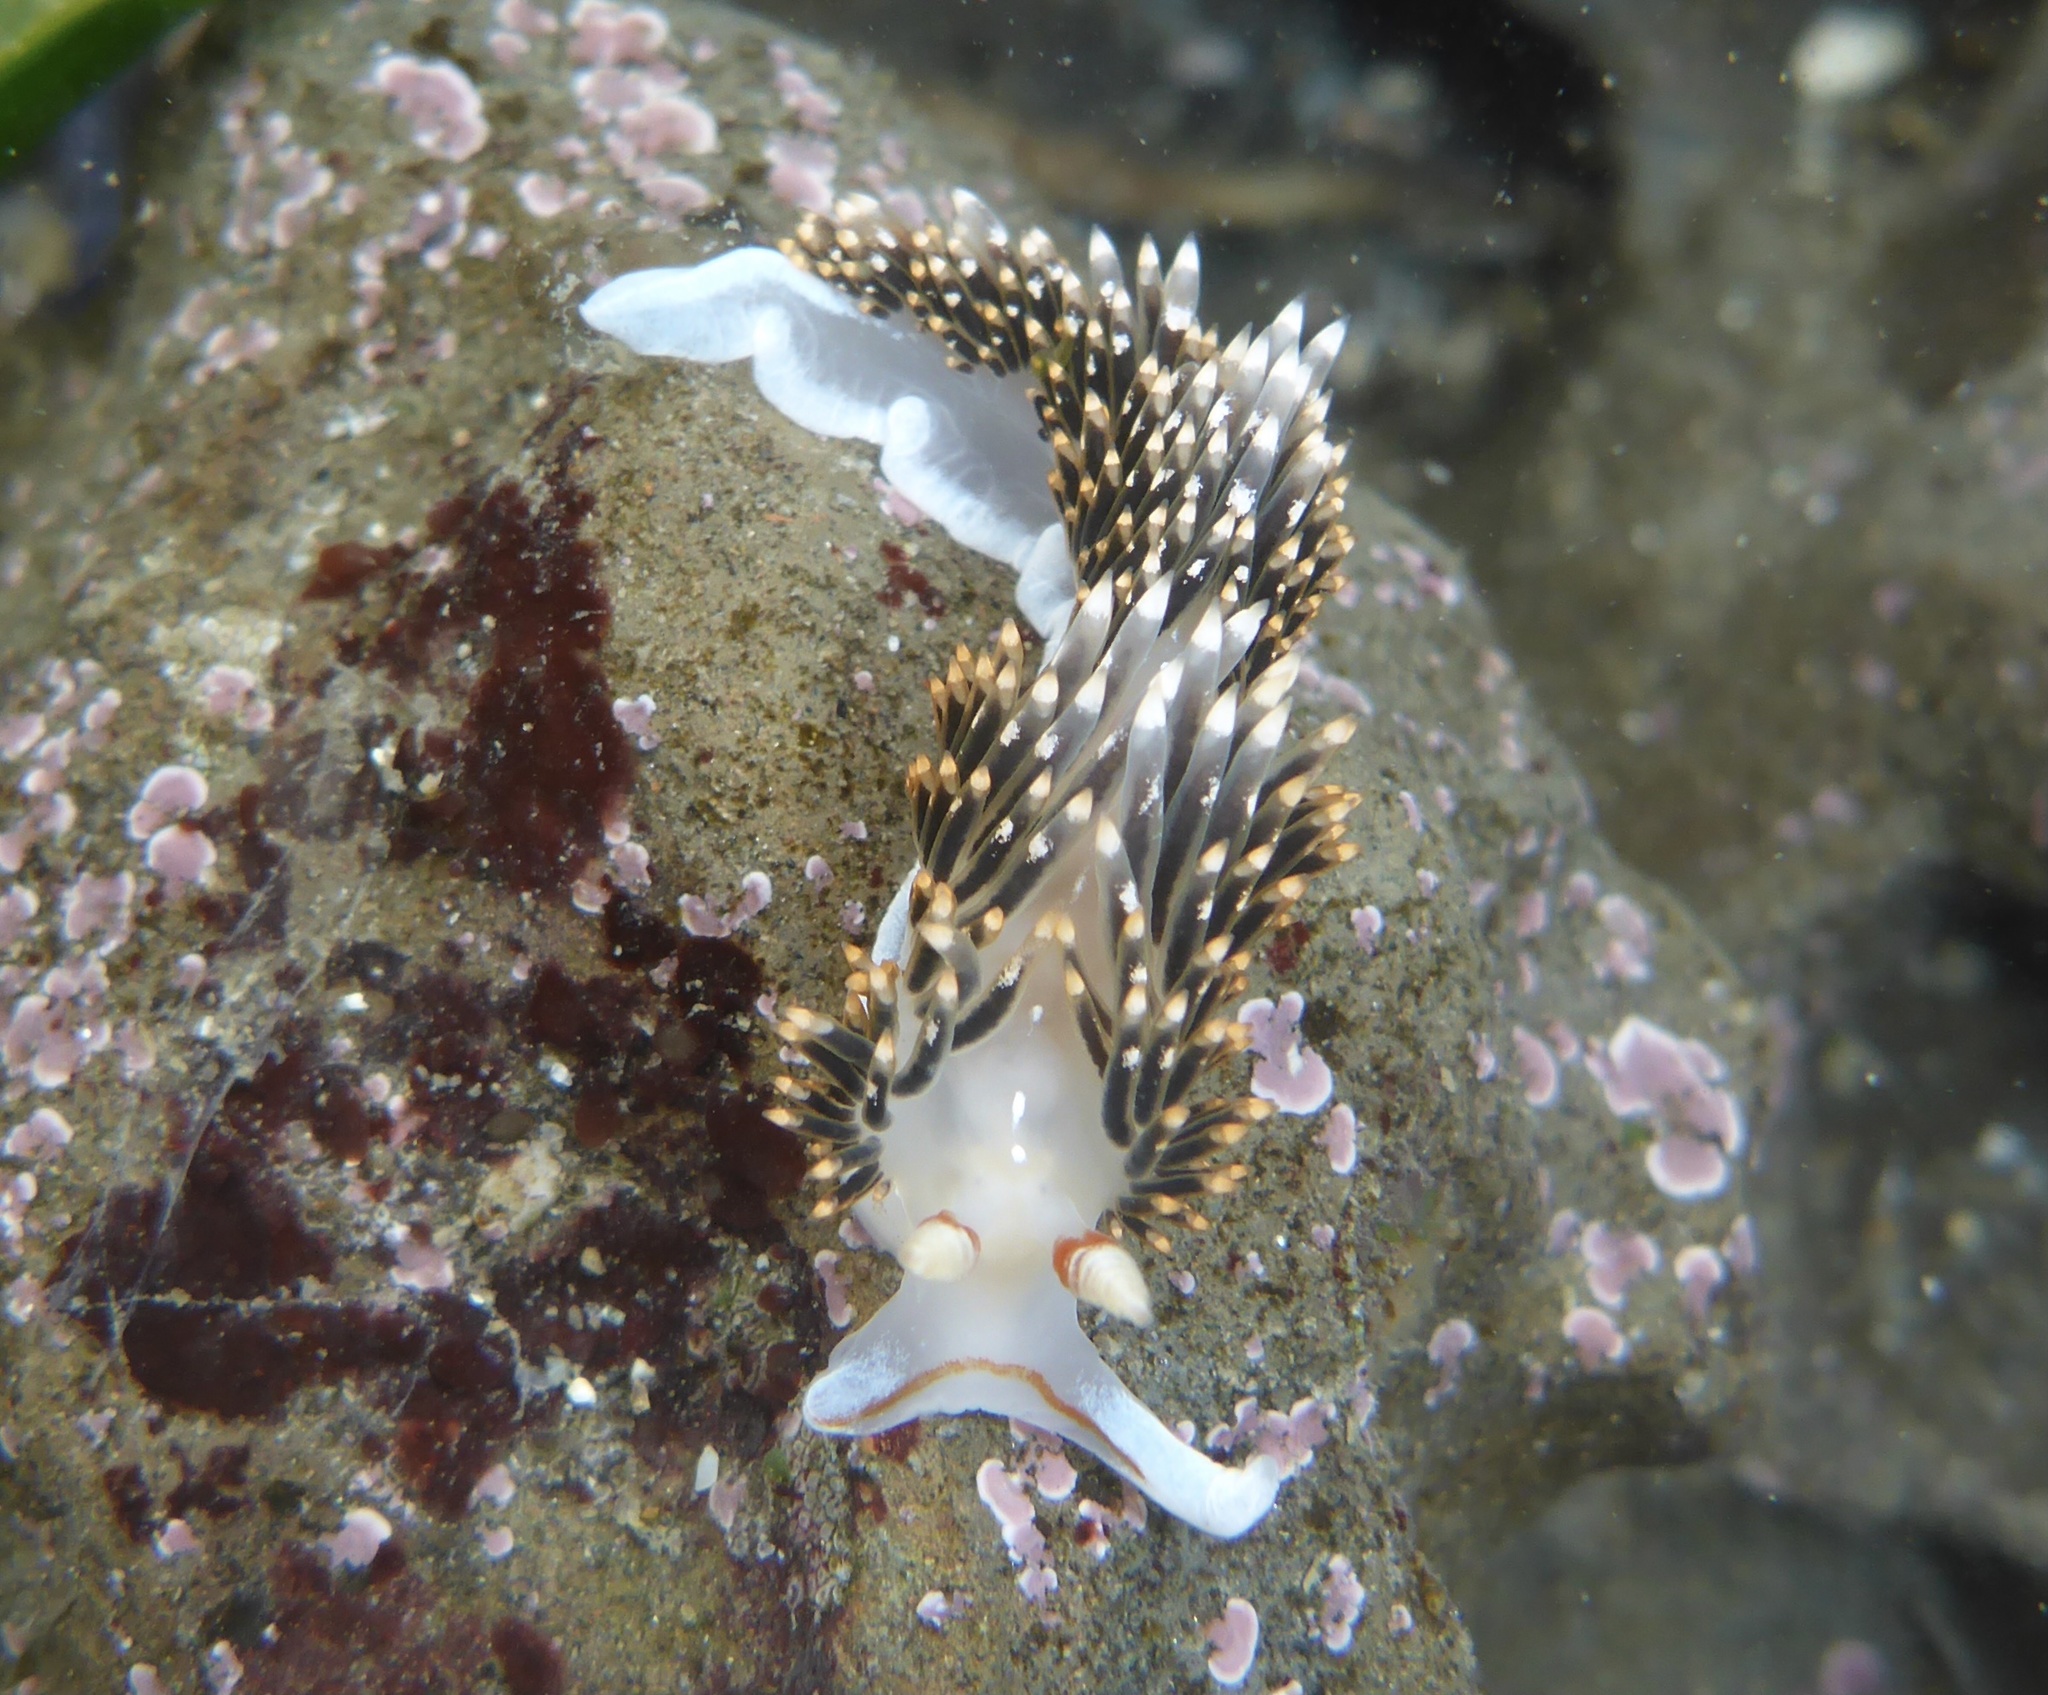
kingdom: Animalia
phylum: Mollusca
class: Gastropoda
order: Nudibranchia
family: Facelinidae
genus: Phidiana
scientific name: Phidiana hiltoni
